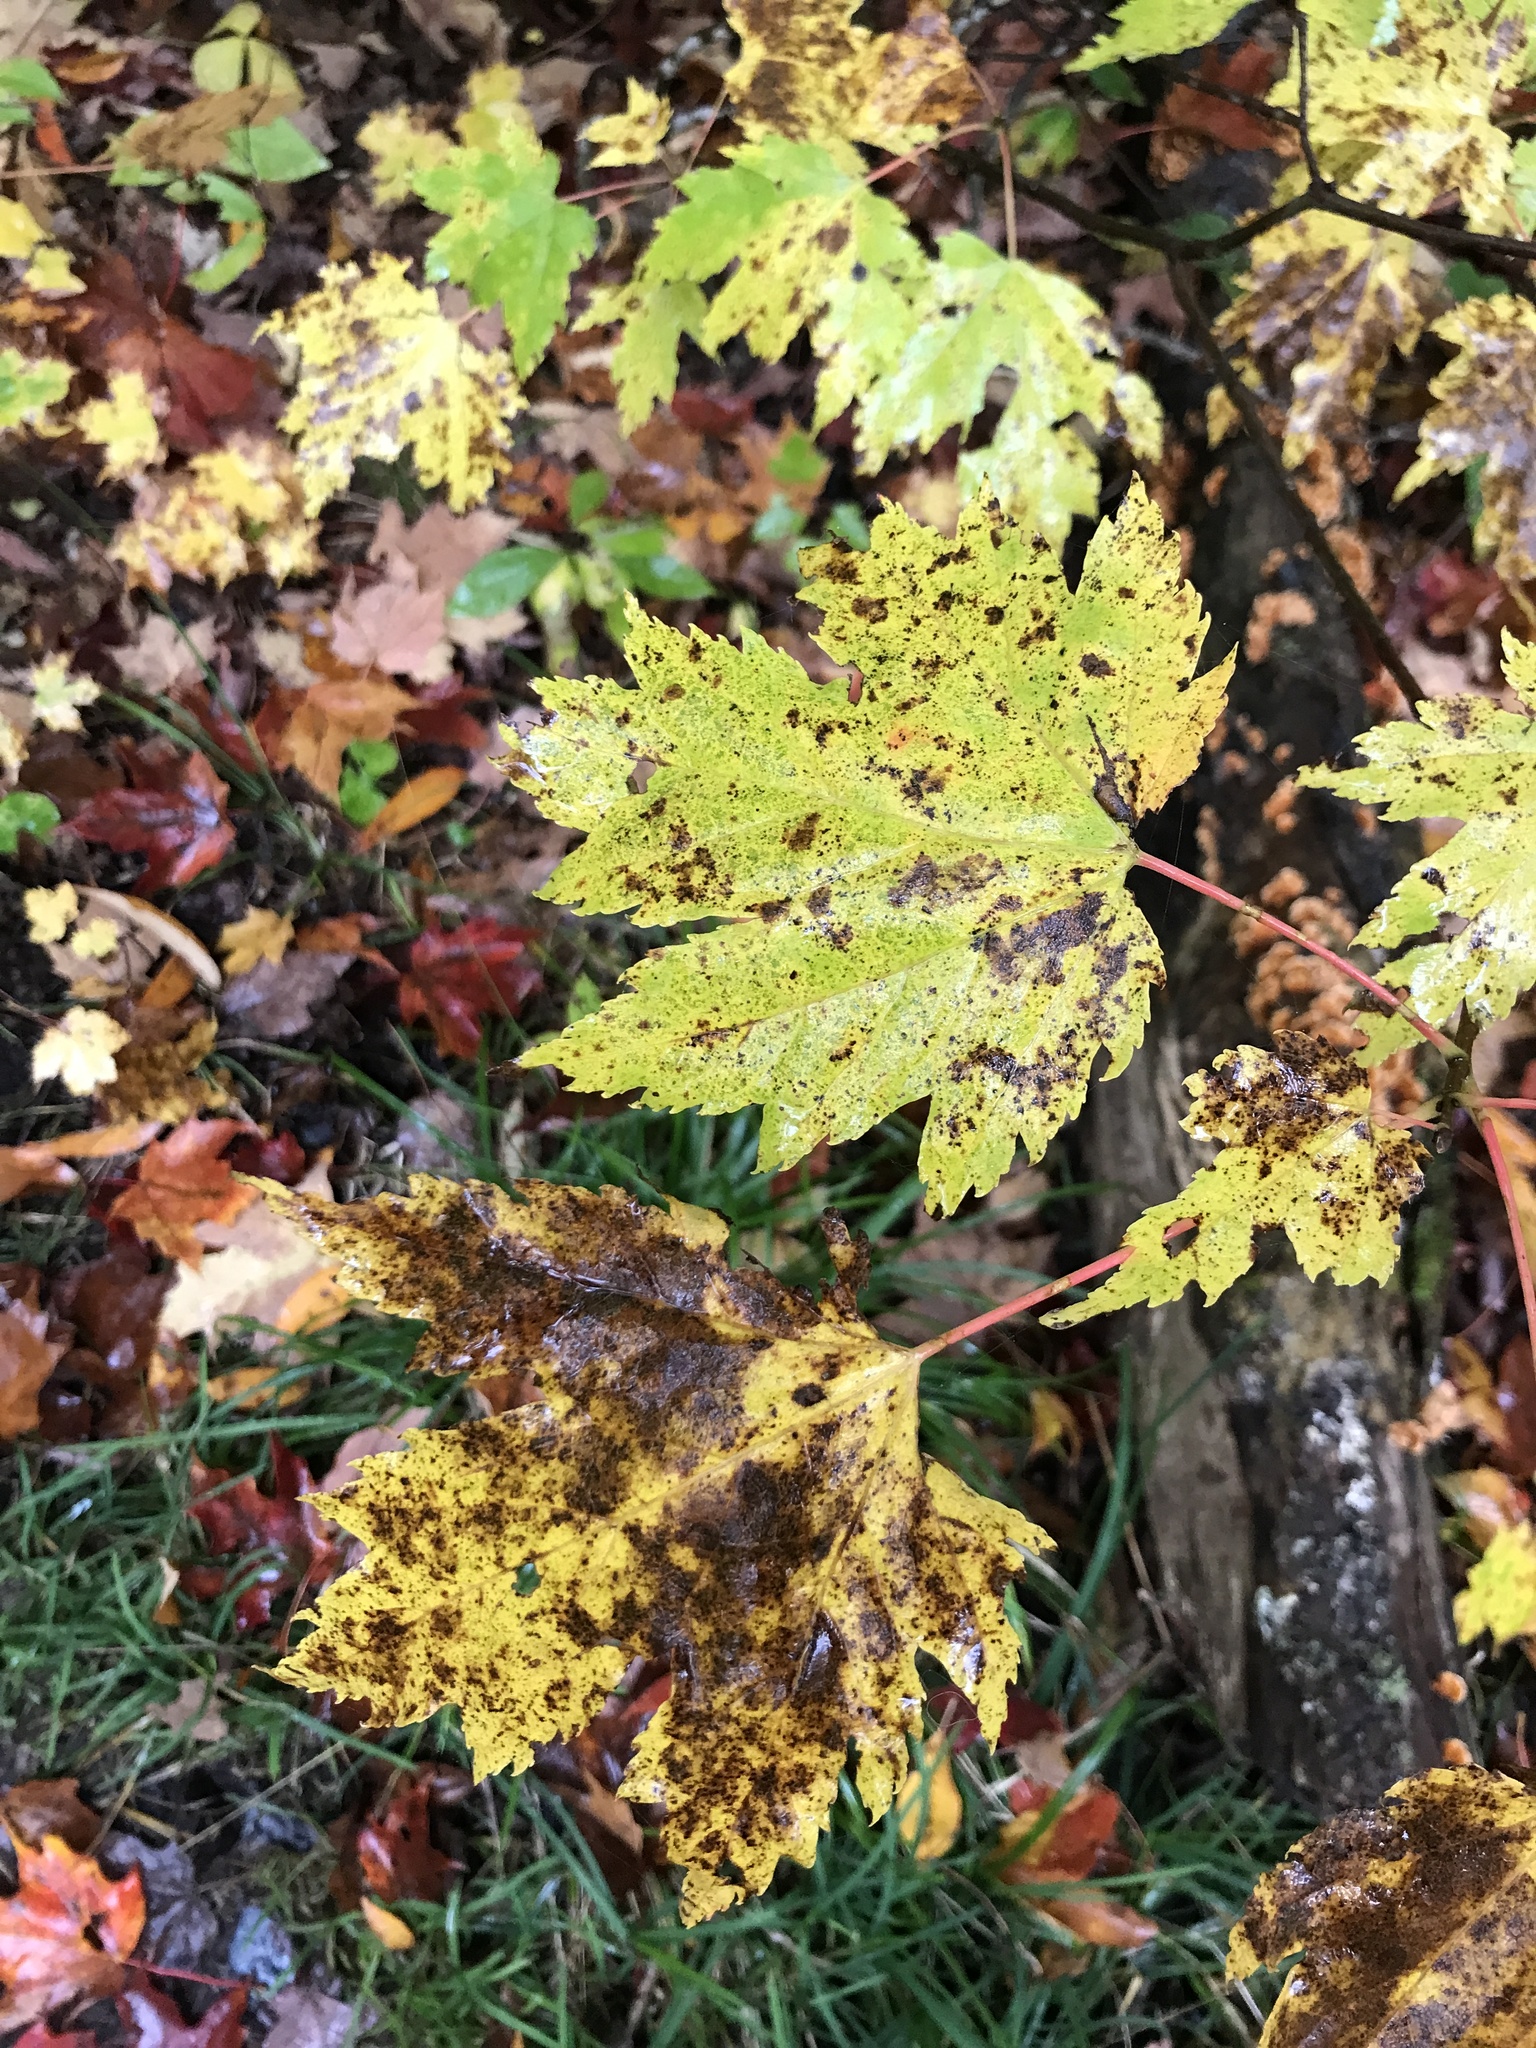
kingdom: Plantae
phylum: Tracheophyta
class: Magnoliopsida
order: Sapindales
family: Sapindaceae
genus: Acer
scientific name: Acer rubrum
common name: Red maple
